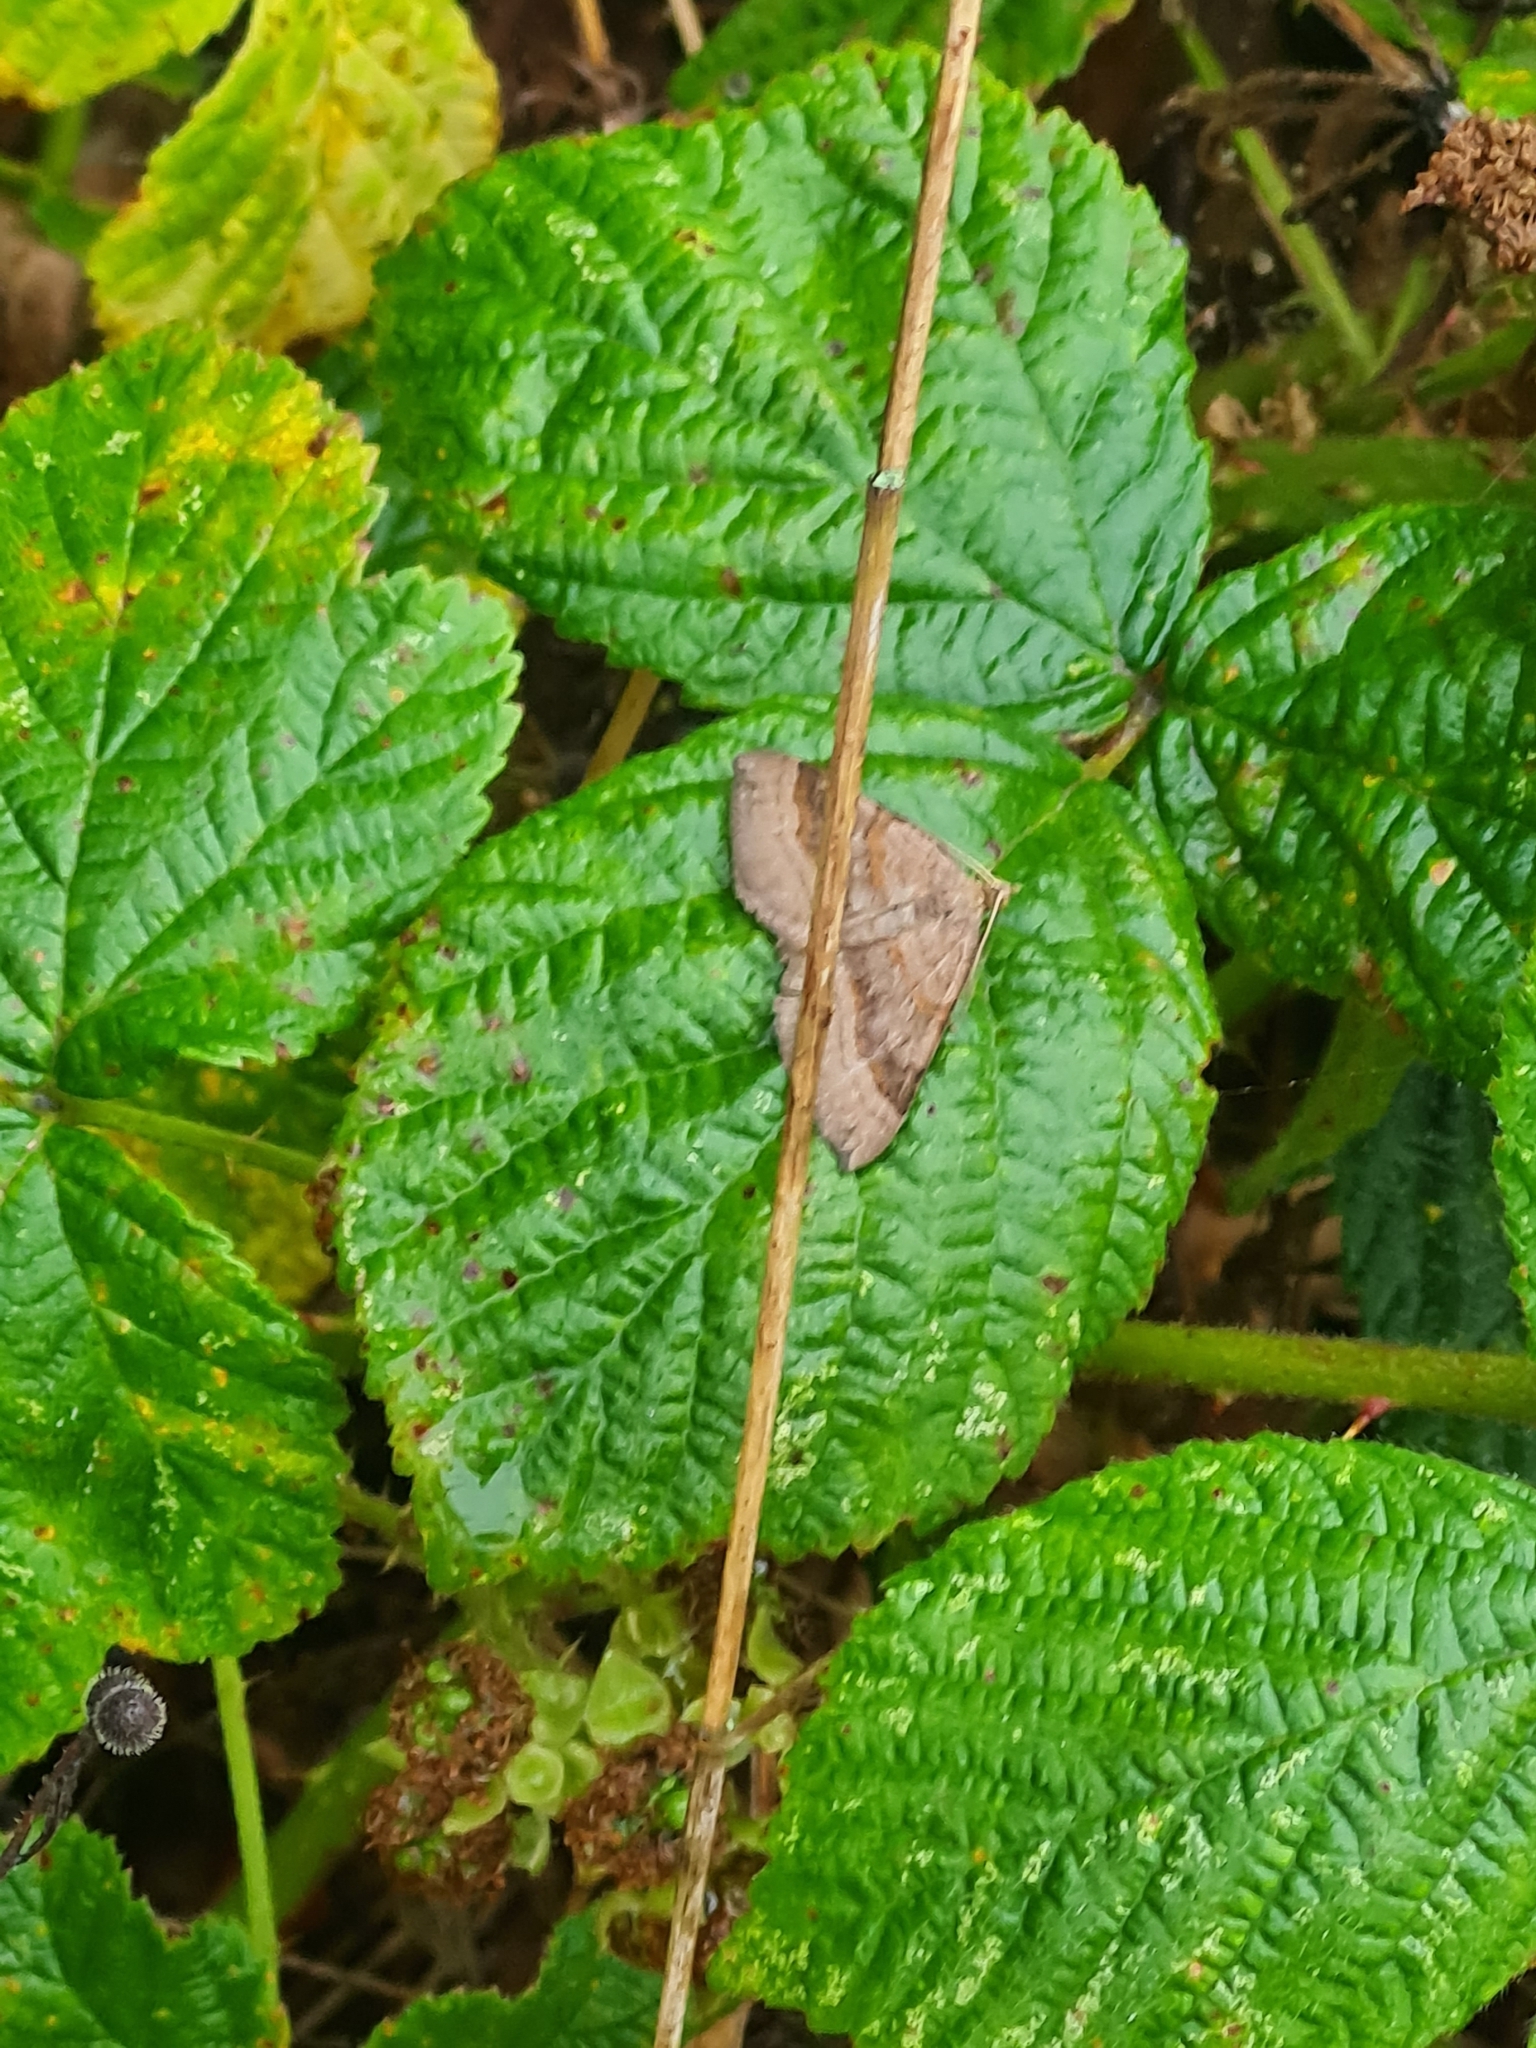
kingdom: Animalia
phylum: Arthropoda
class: Insecta
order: Lepidoptera
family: Geometridae
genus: Scotopteryx
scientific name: Scotopteryx chenopodiata
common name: Shaded broad-bar
